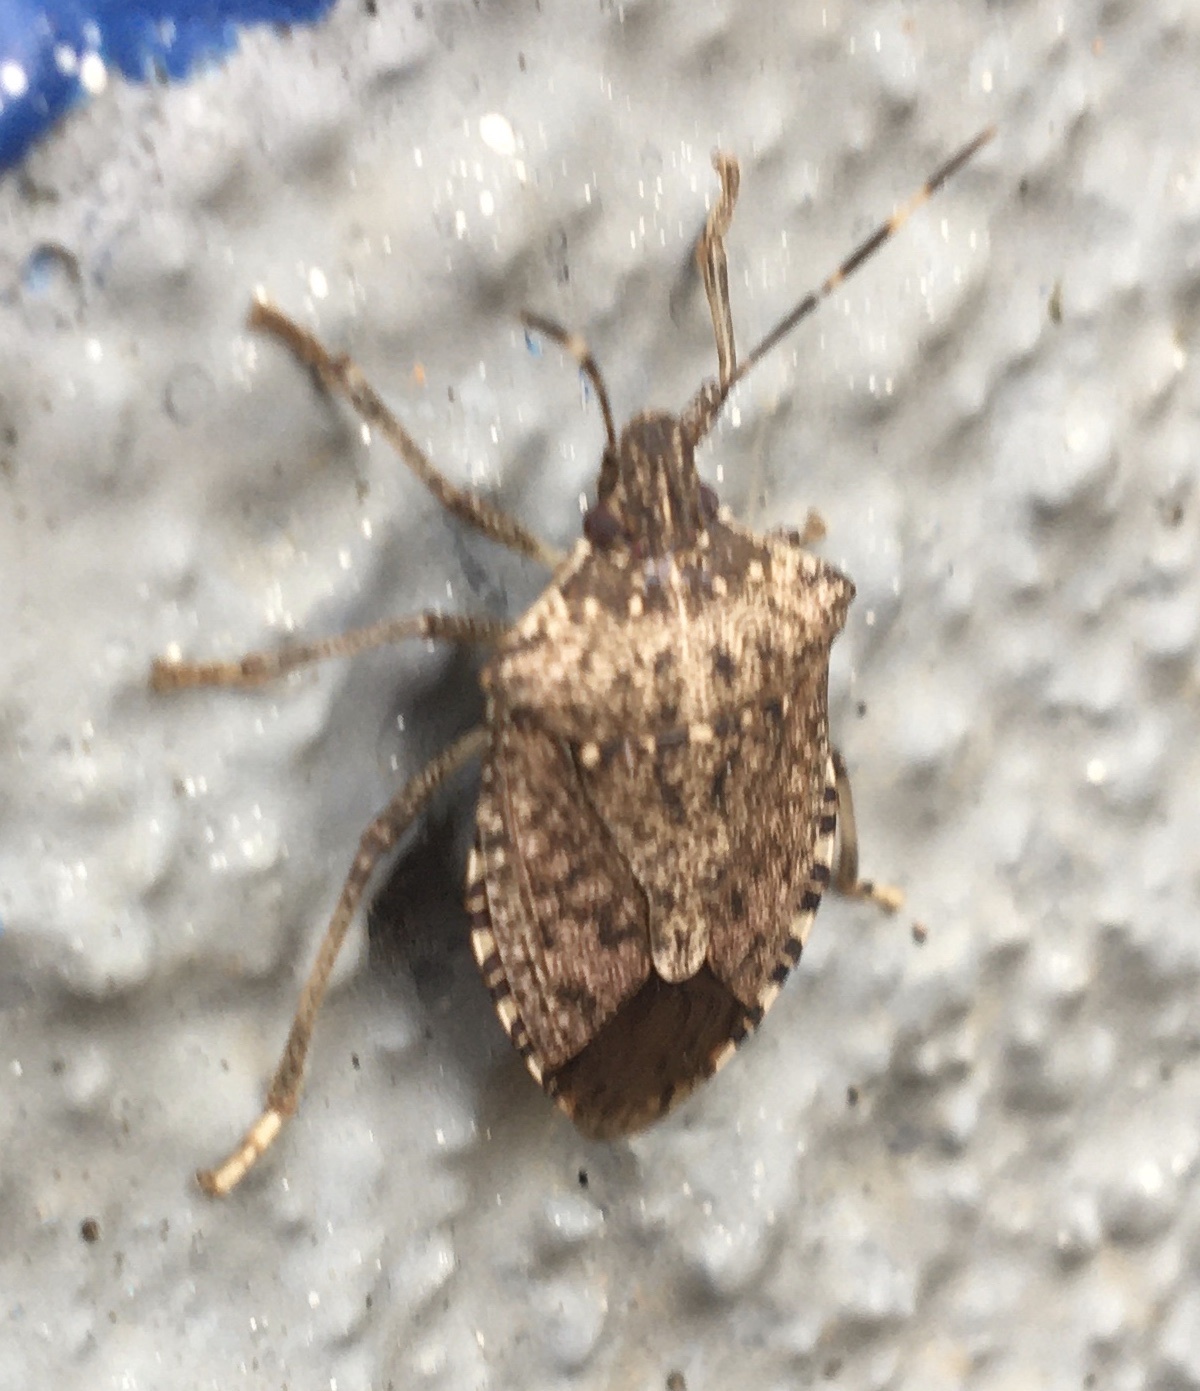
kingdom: Animalia
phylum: Arthropoda
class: Insecta
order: Hemiptera
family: Pentatomidae
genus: Halyomorpha
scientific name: Halyomorpha halys
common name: Brown marmorated stink bug
